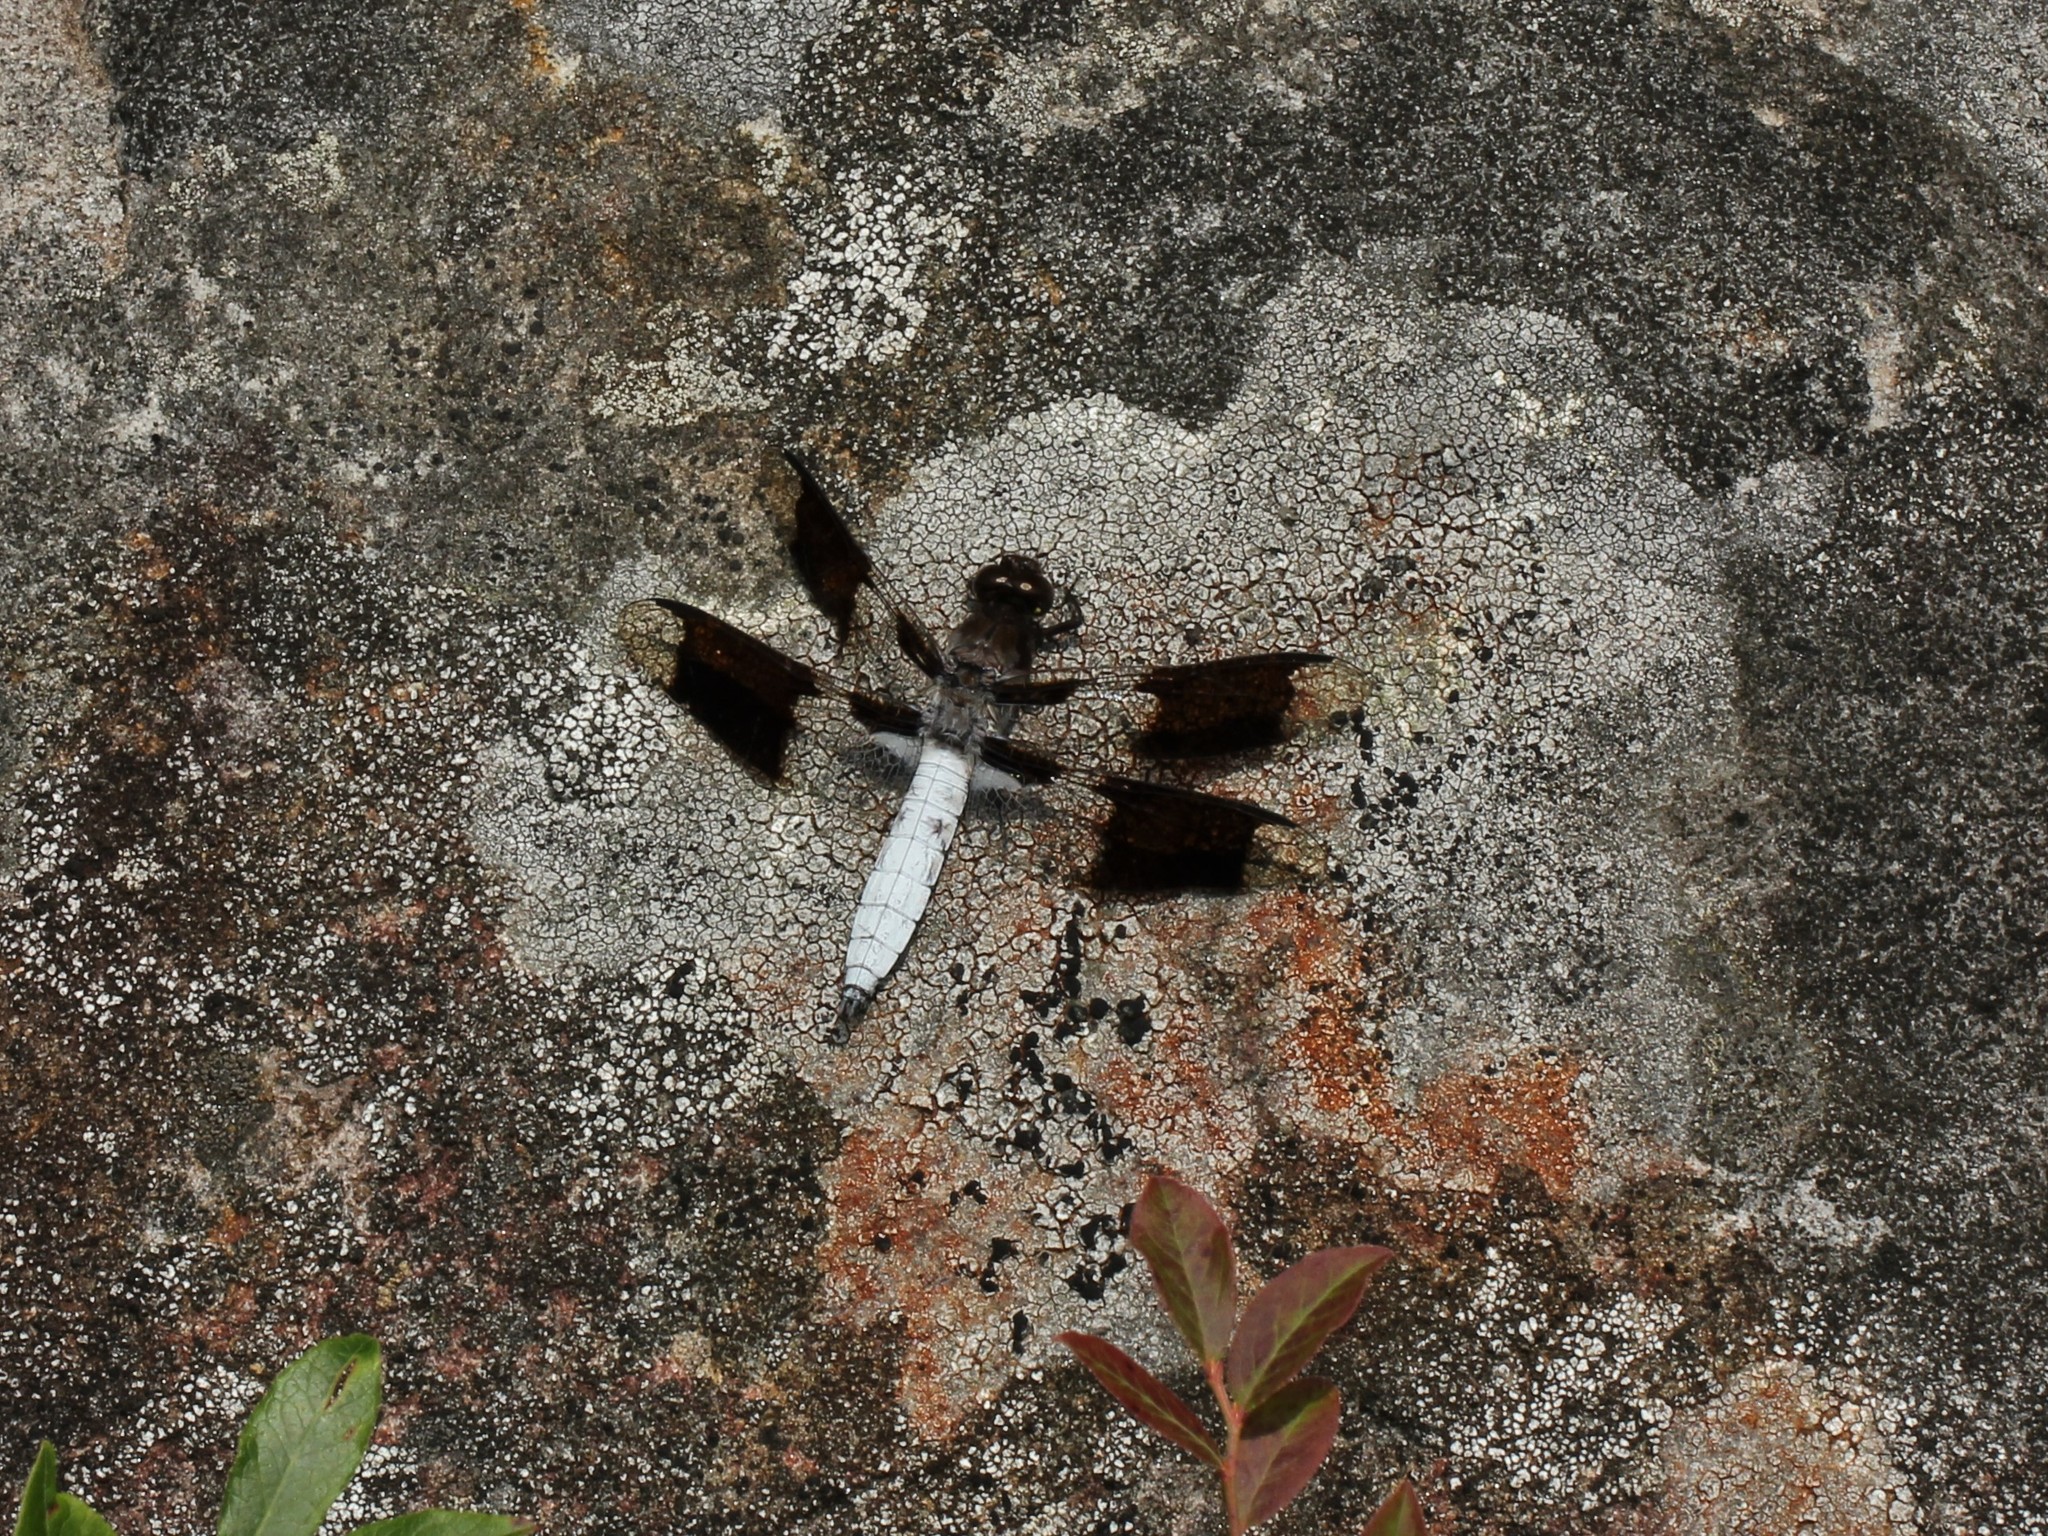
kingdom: Animalia
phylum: Arthropoda
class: Insecta
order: Odonata
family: Libellulidae
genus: Plathemis
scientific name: Plathemis lydia
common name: Common whitetail
